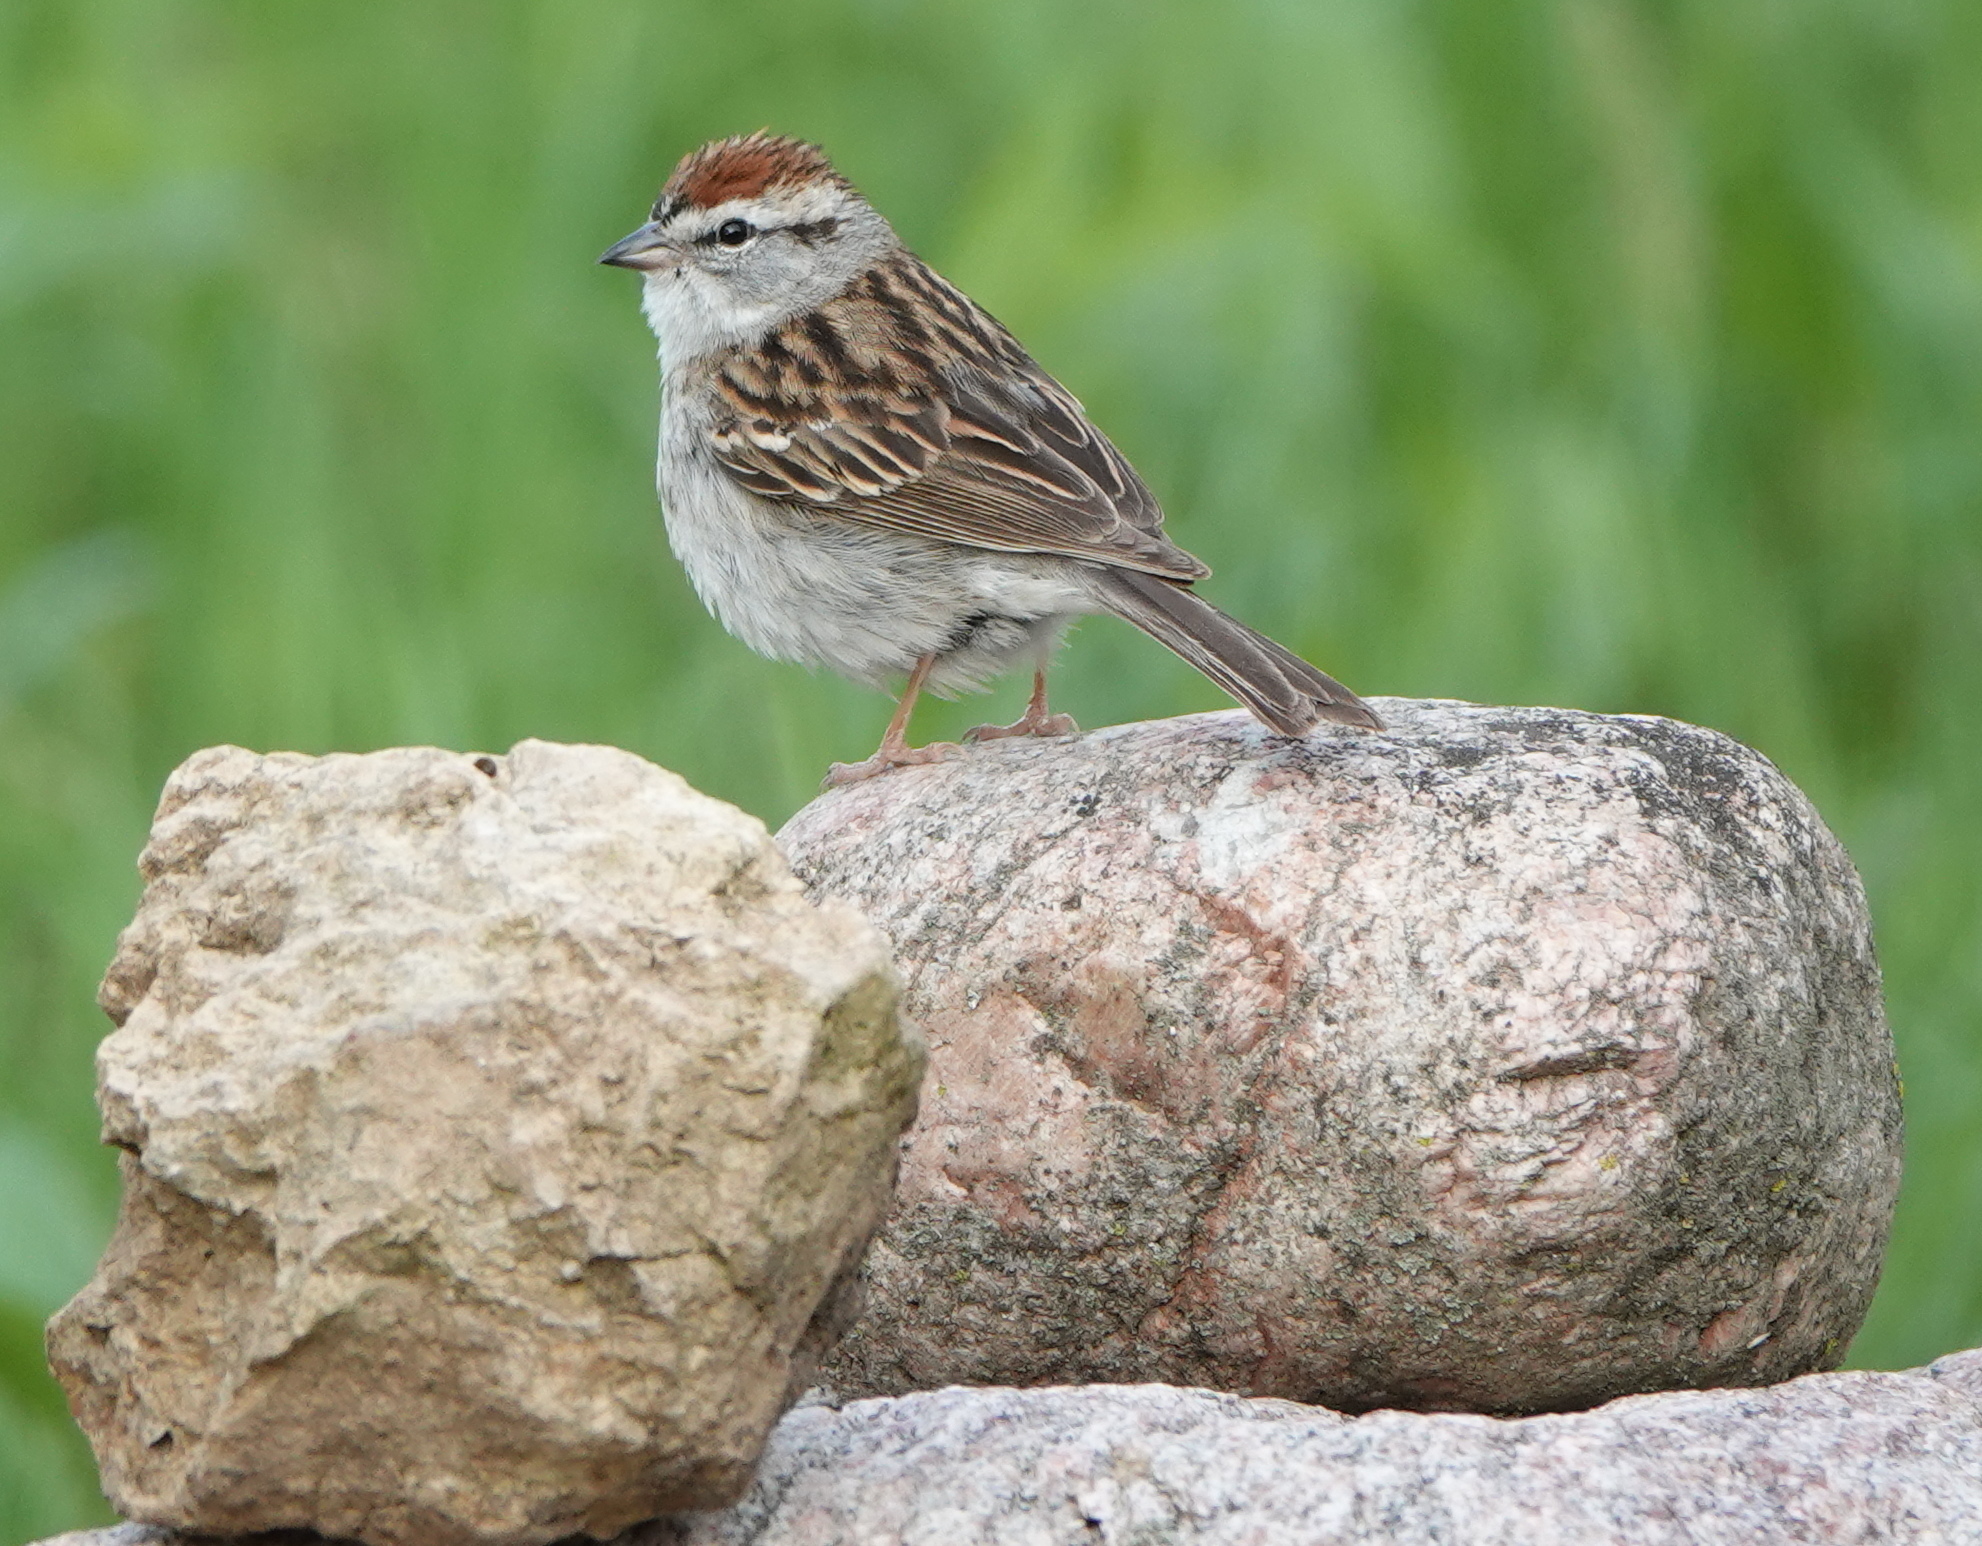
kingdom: Animalia
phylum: Chordata
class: Aves
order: Passeriformes
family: Passerellidae
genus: Spizella
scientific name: Spizella passerina
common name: Chipping sparrow
